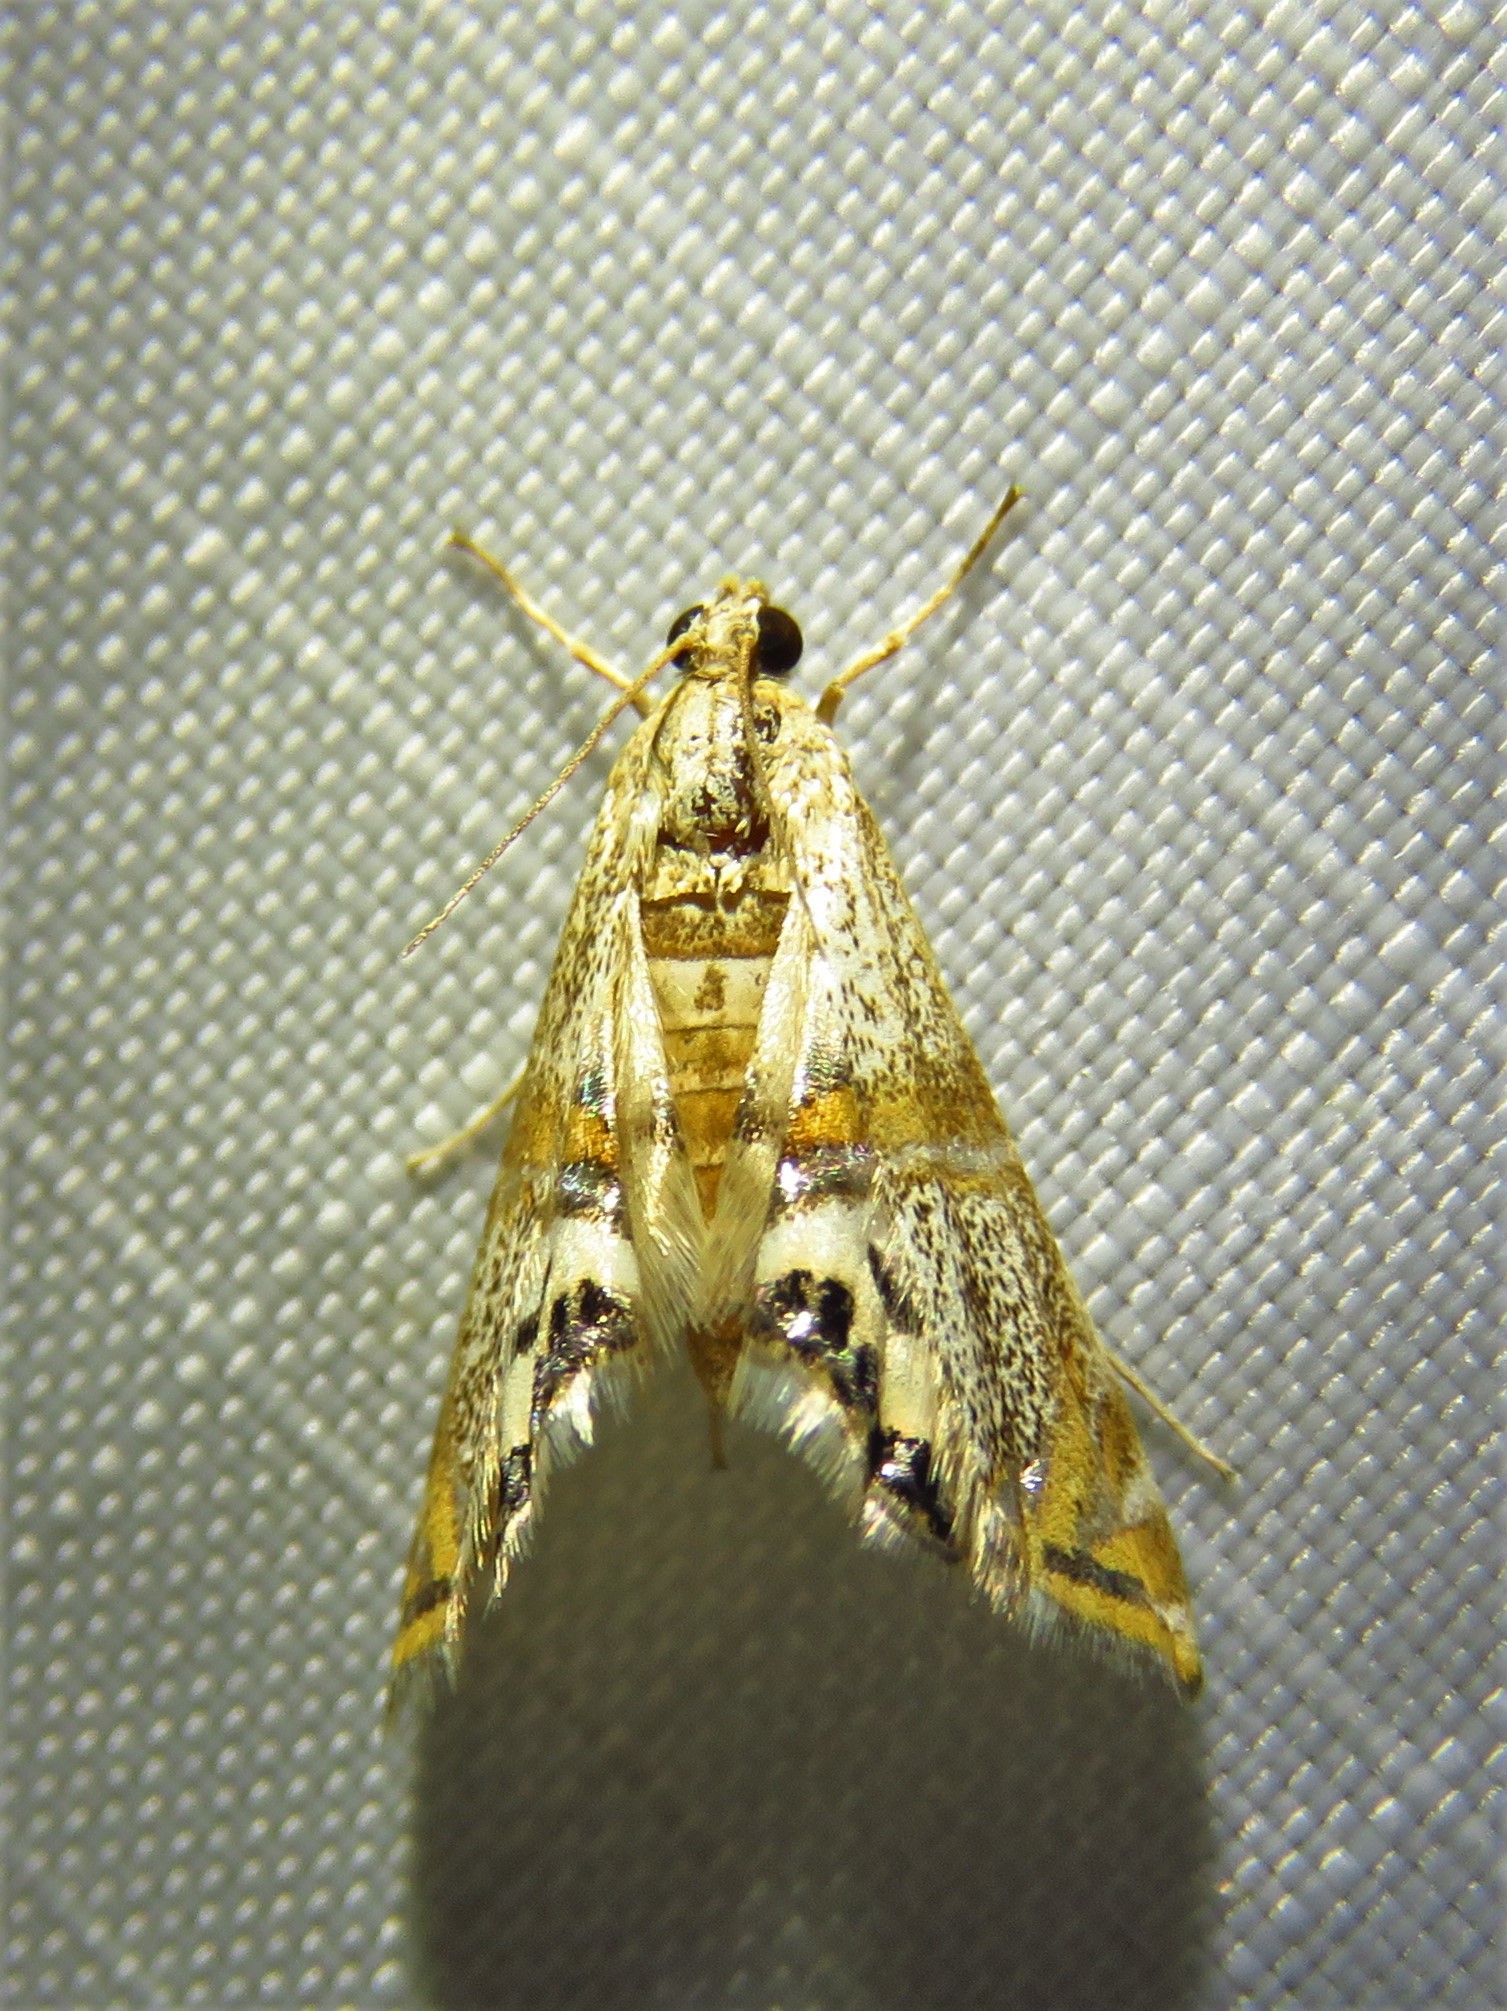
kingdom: Animalia
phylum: Arthropoda
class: Insecta
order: Lepidoptera
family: Crambidae
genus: Petrophila
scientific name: Petrophila bifascialis
